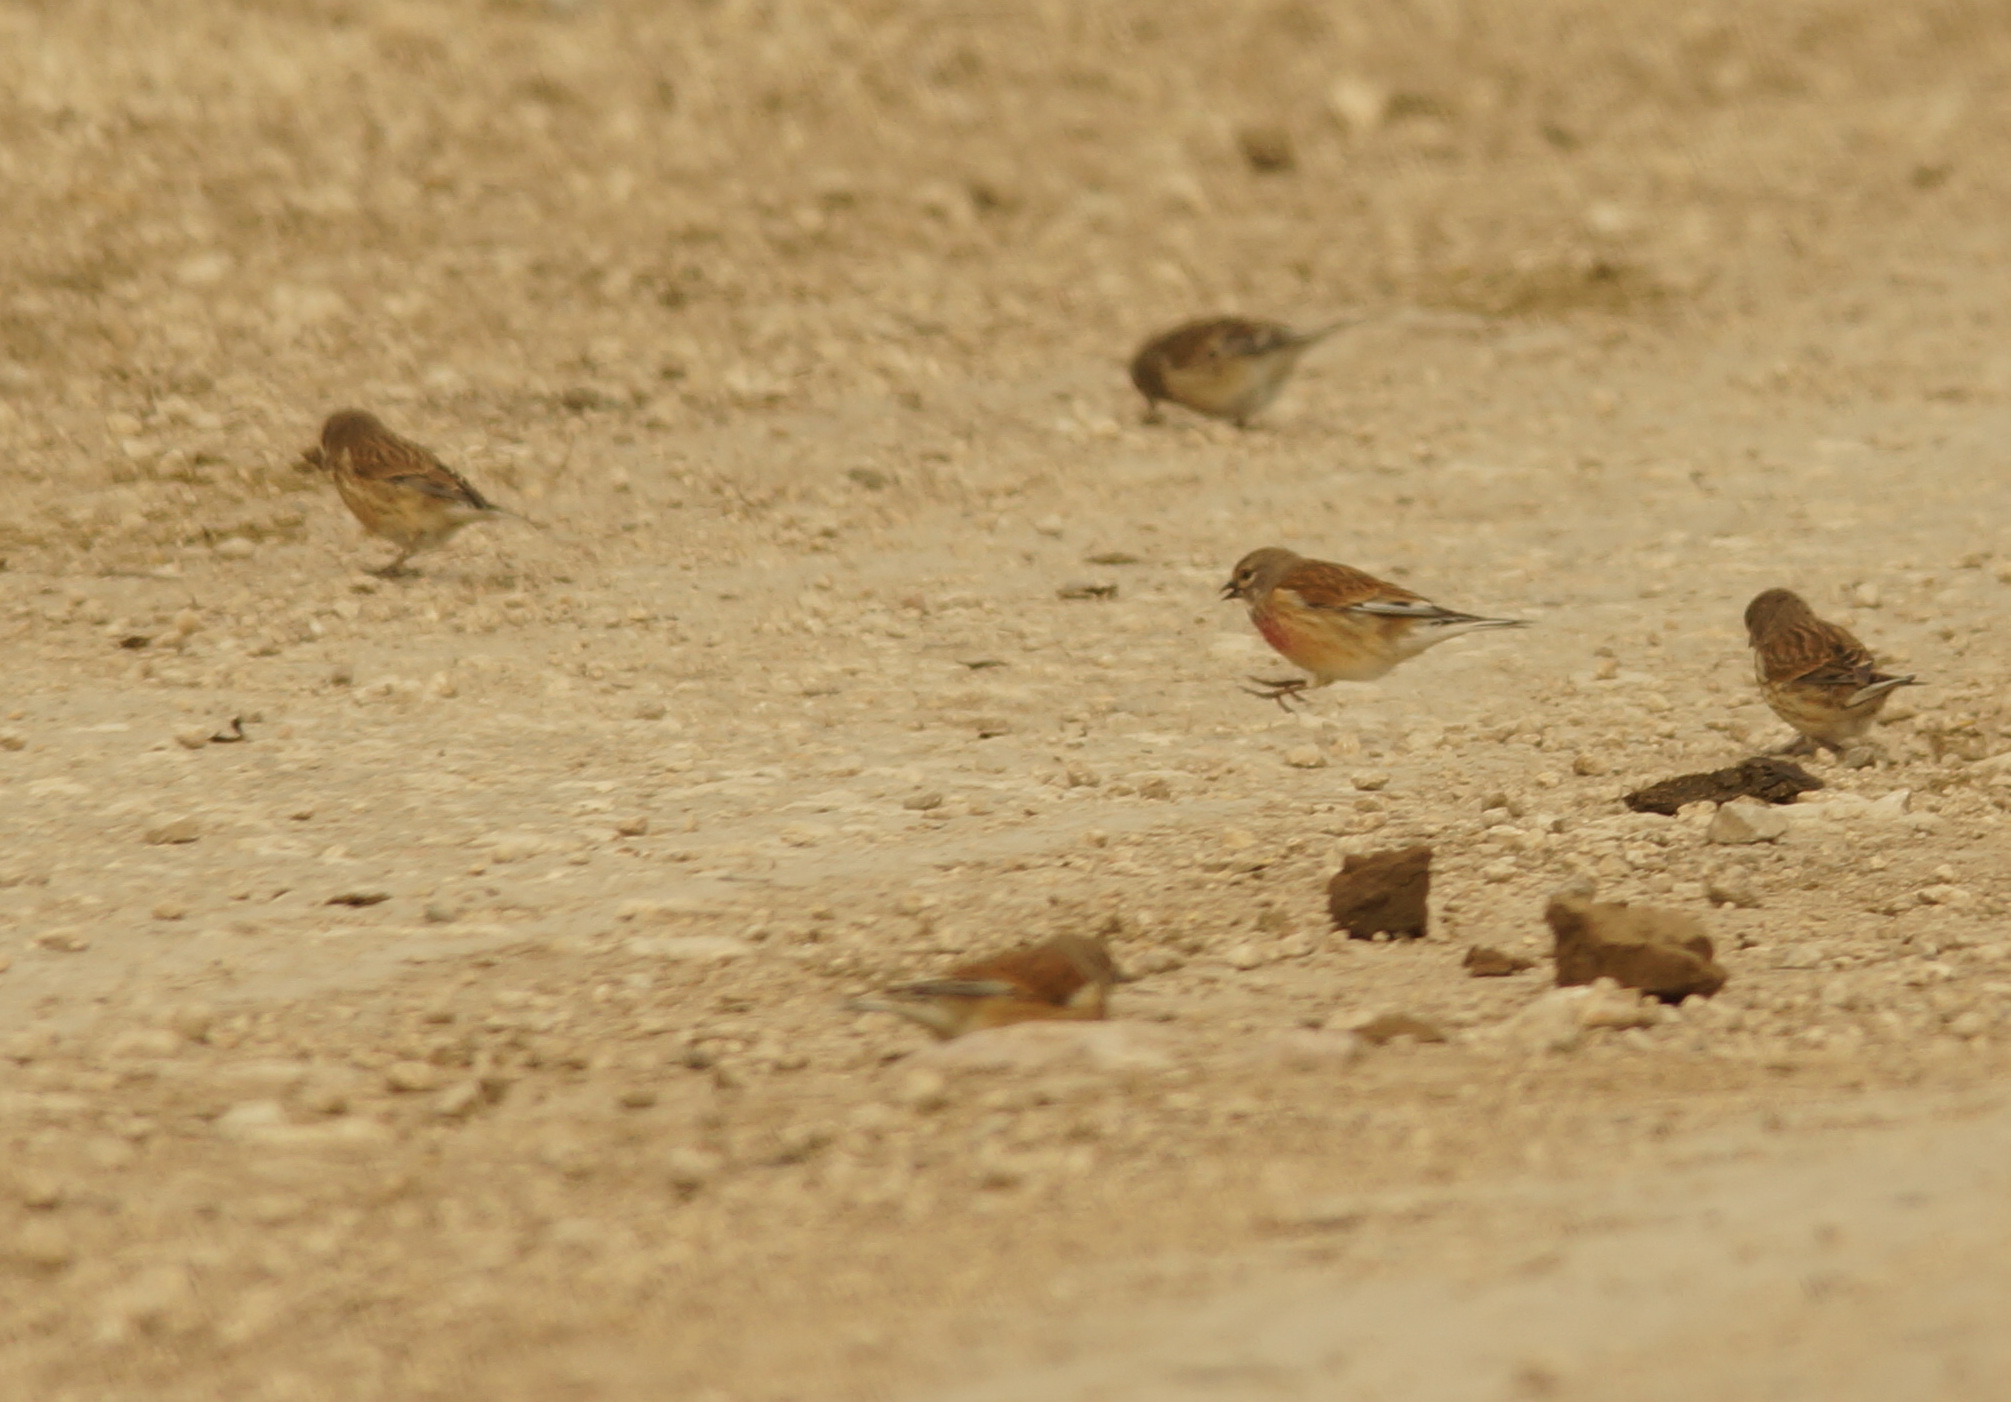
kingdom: Animalia
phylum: Chordata
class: Aves
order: Passeriformes
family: Fringillidae
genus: Linaria
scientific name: Linaria cannabina
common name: Common linnet
